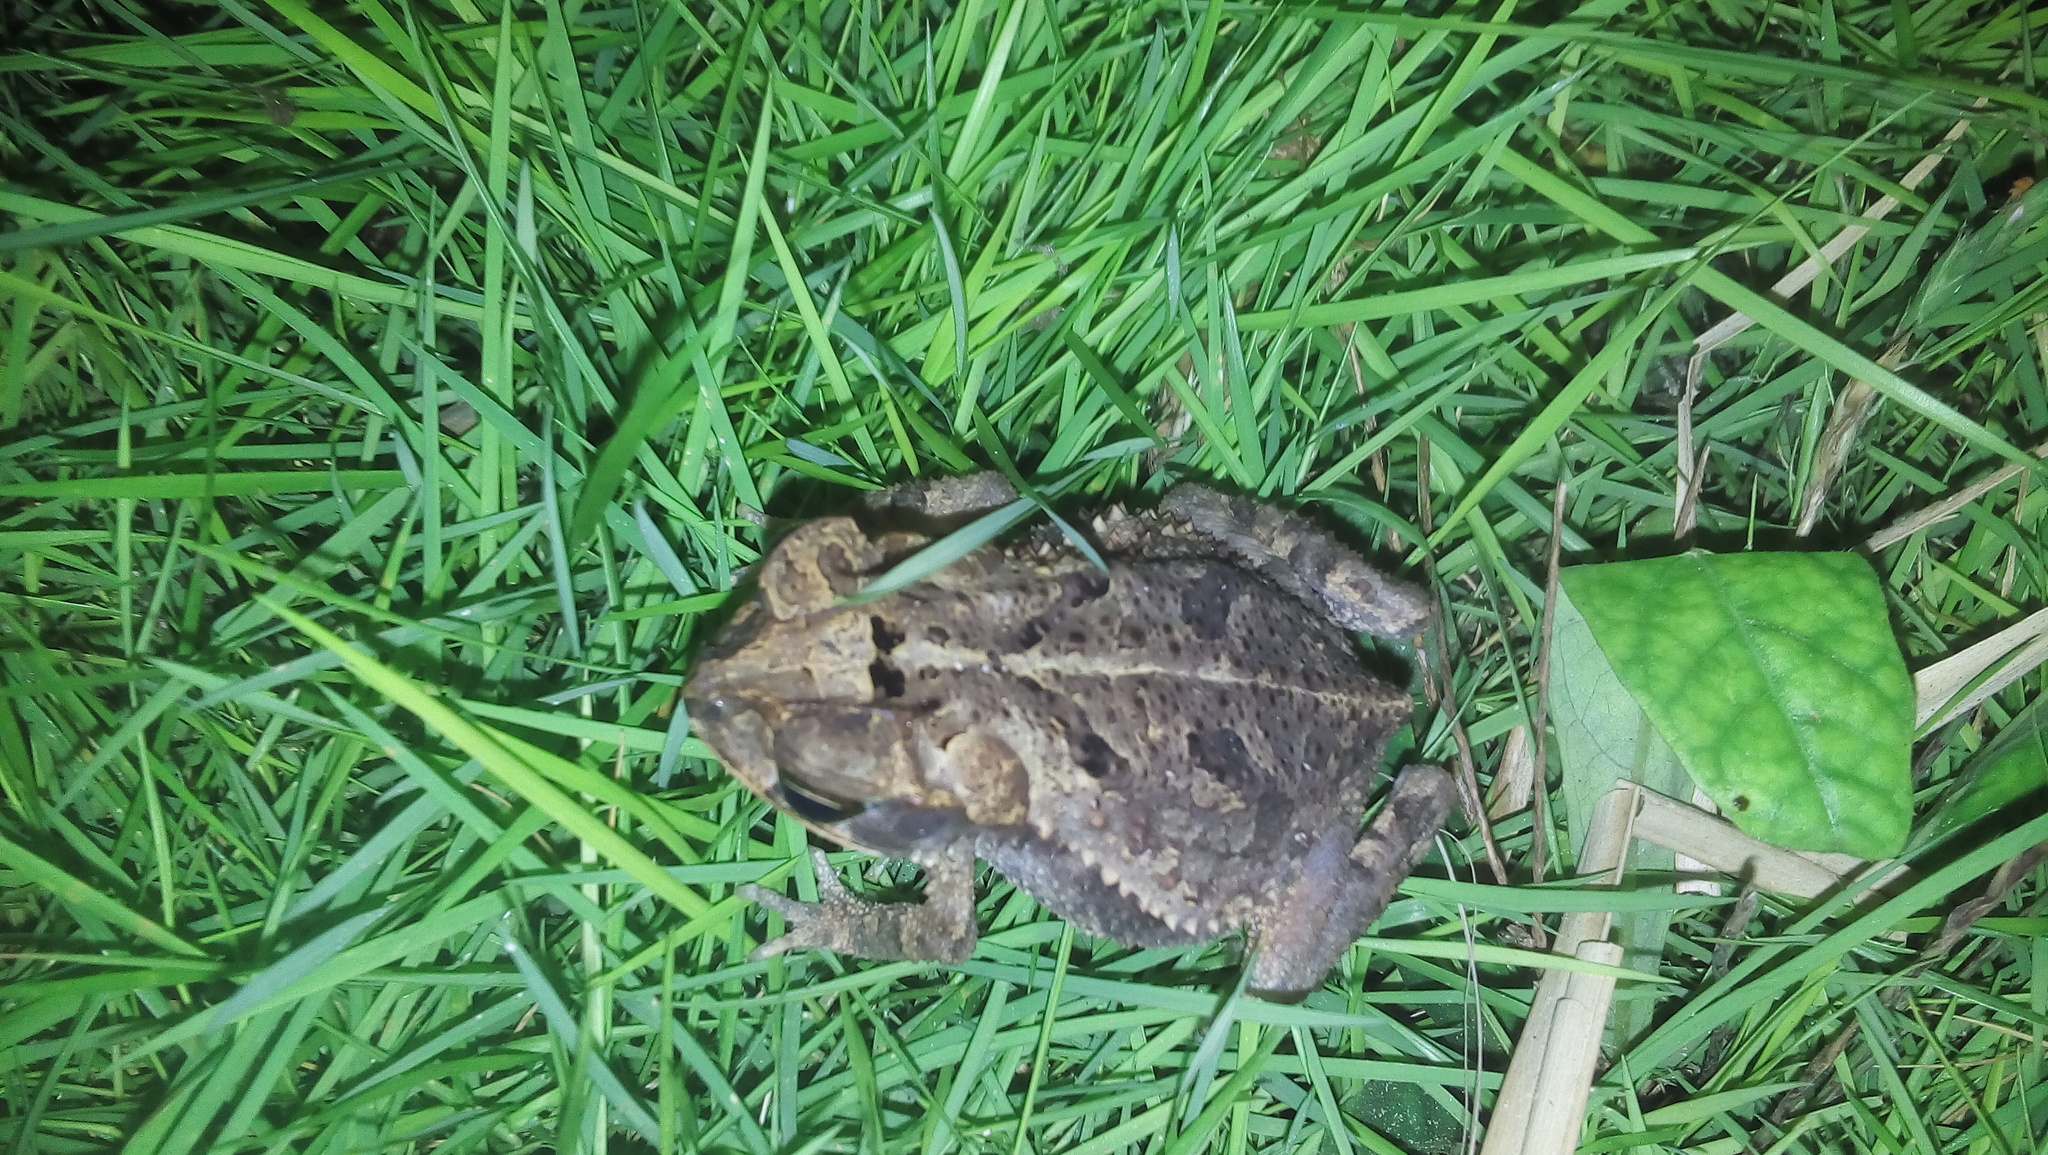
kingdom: Animalia
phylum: Chordata
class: Amphibia
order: Anura
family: Bufonidae
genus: Incilius
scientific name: Incilius valliceps
